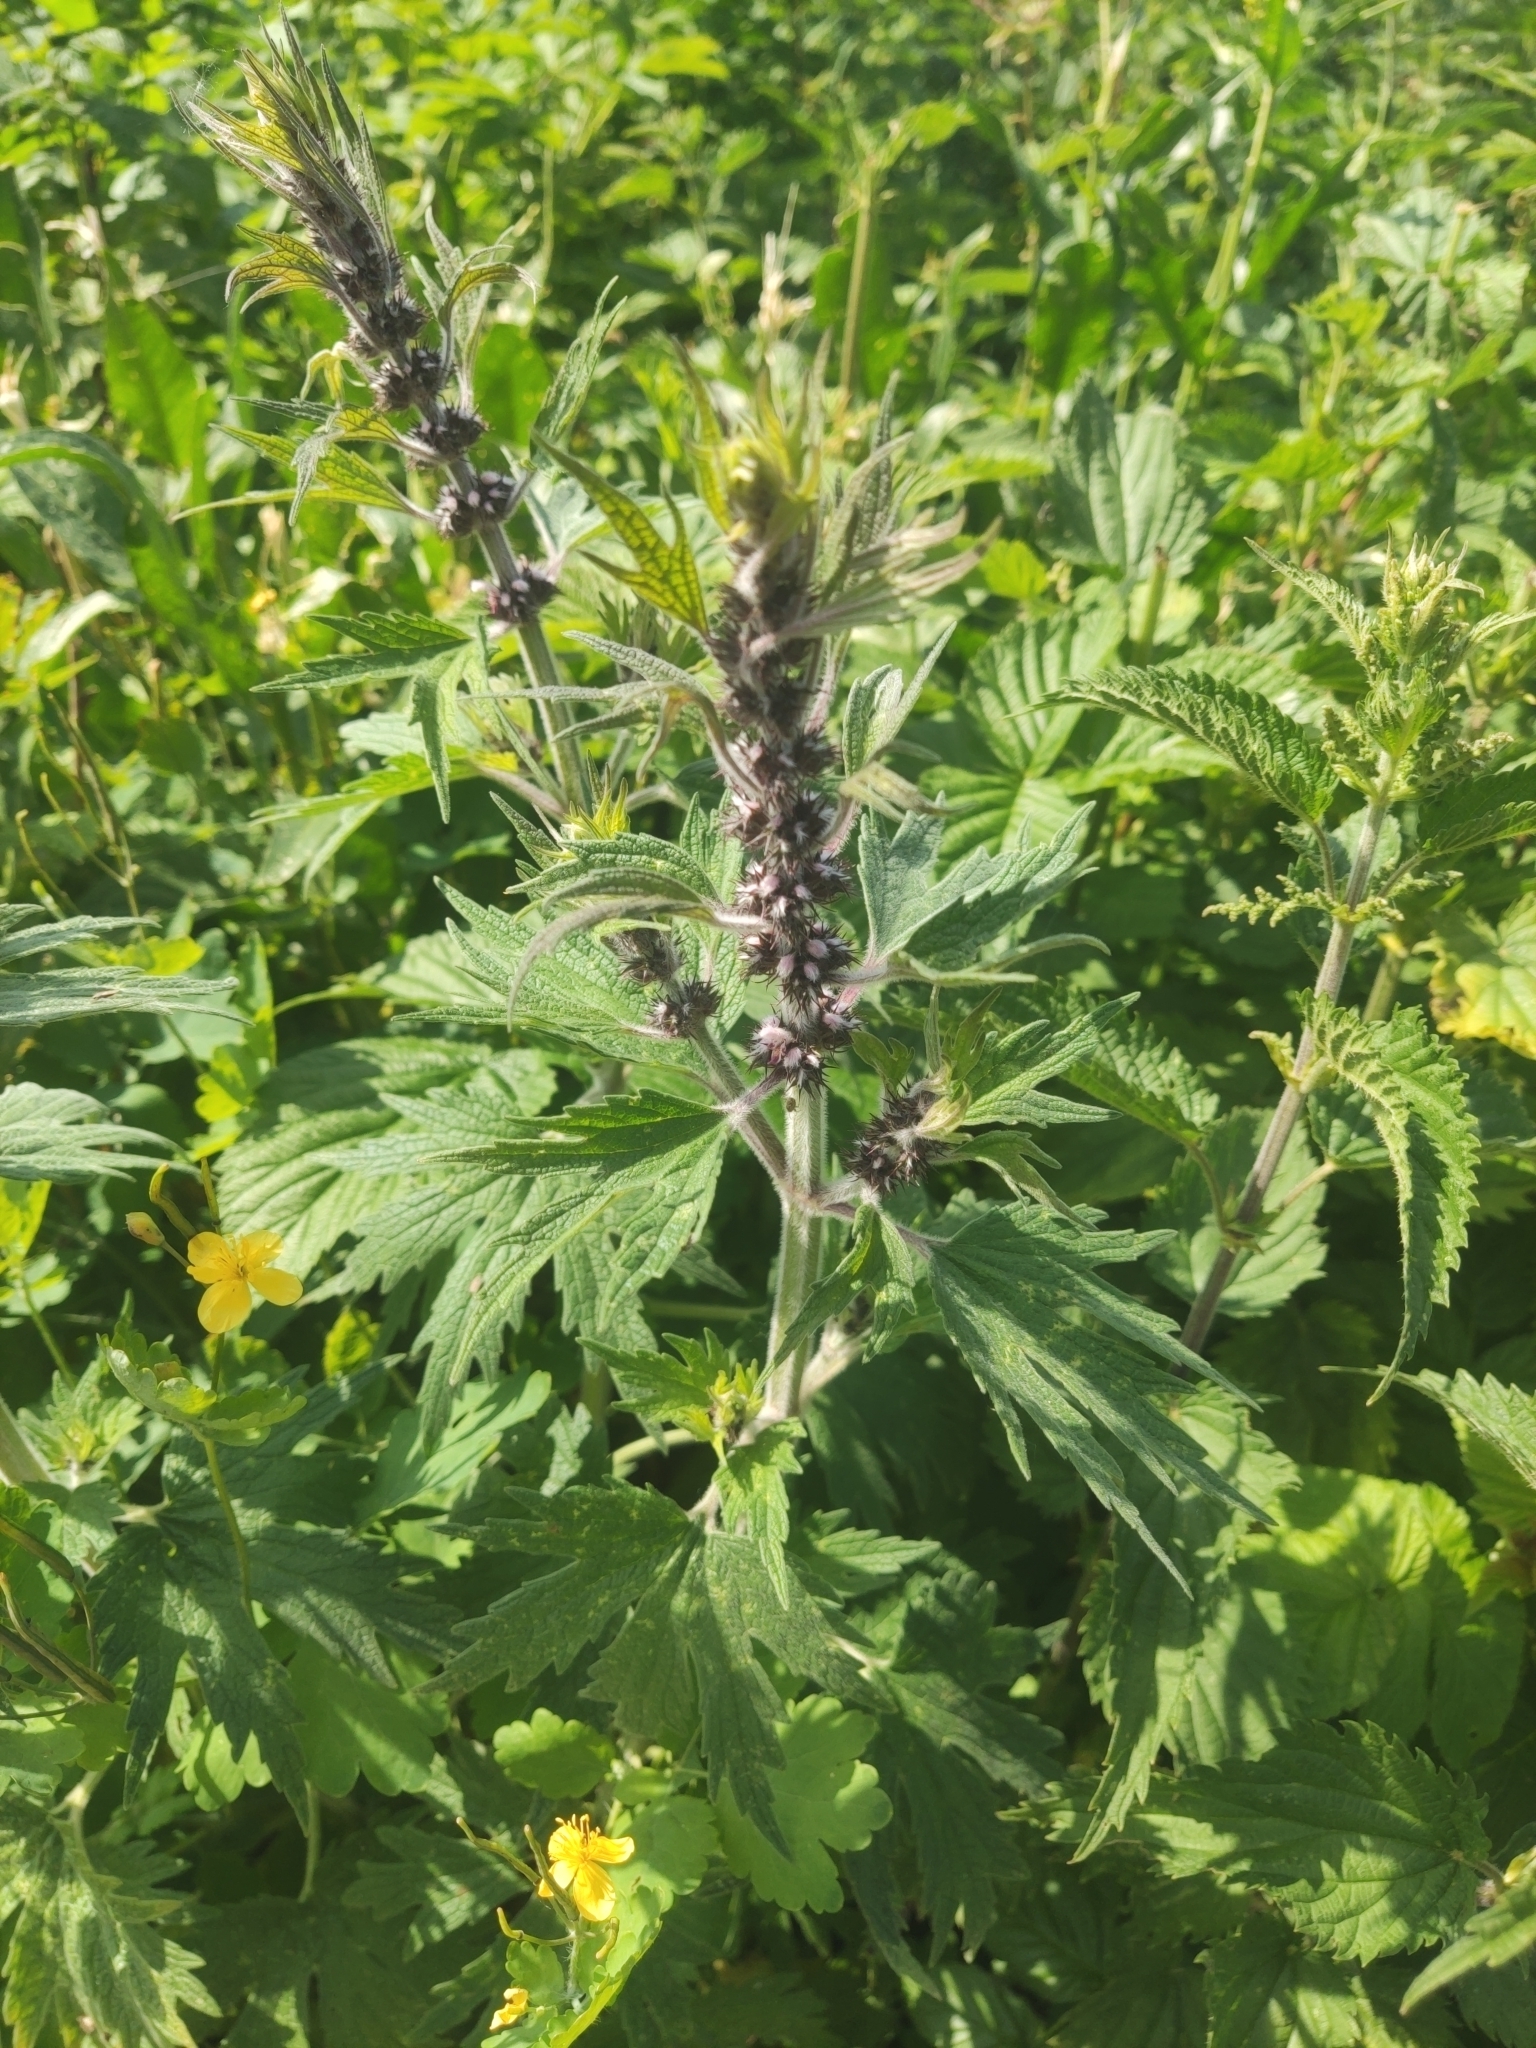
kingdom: Plantae
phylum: Tracheophyta
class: Magnoliopsida
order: Lamiales
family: Lamiaceae
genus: Leonurus
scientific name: Leonurus quinquelobatus
